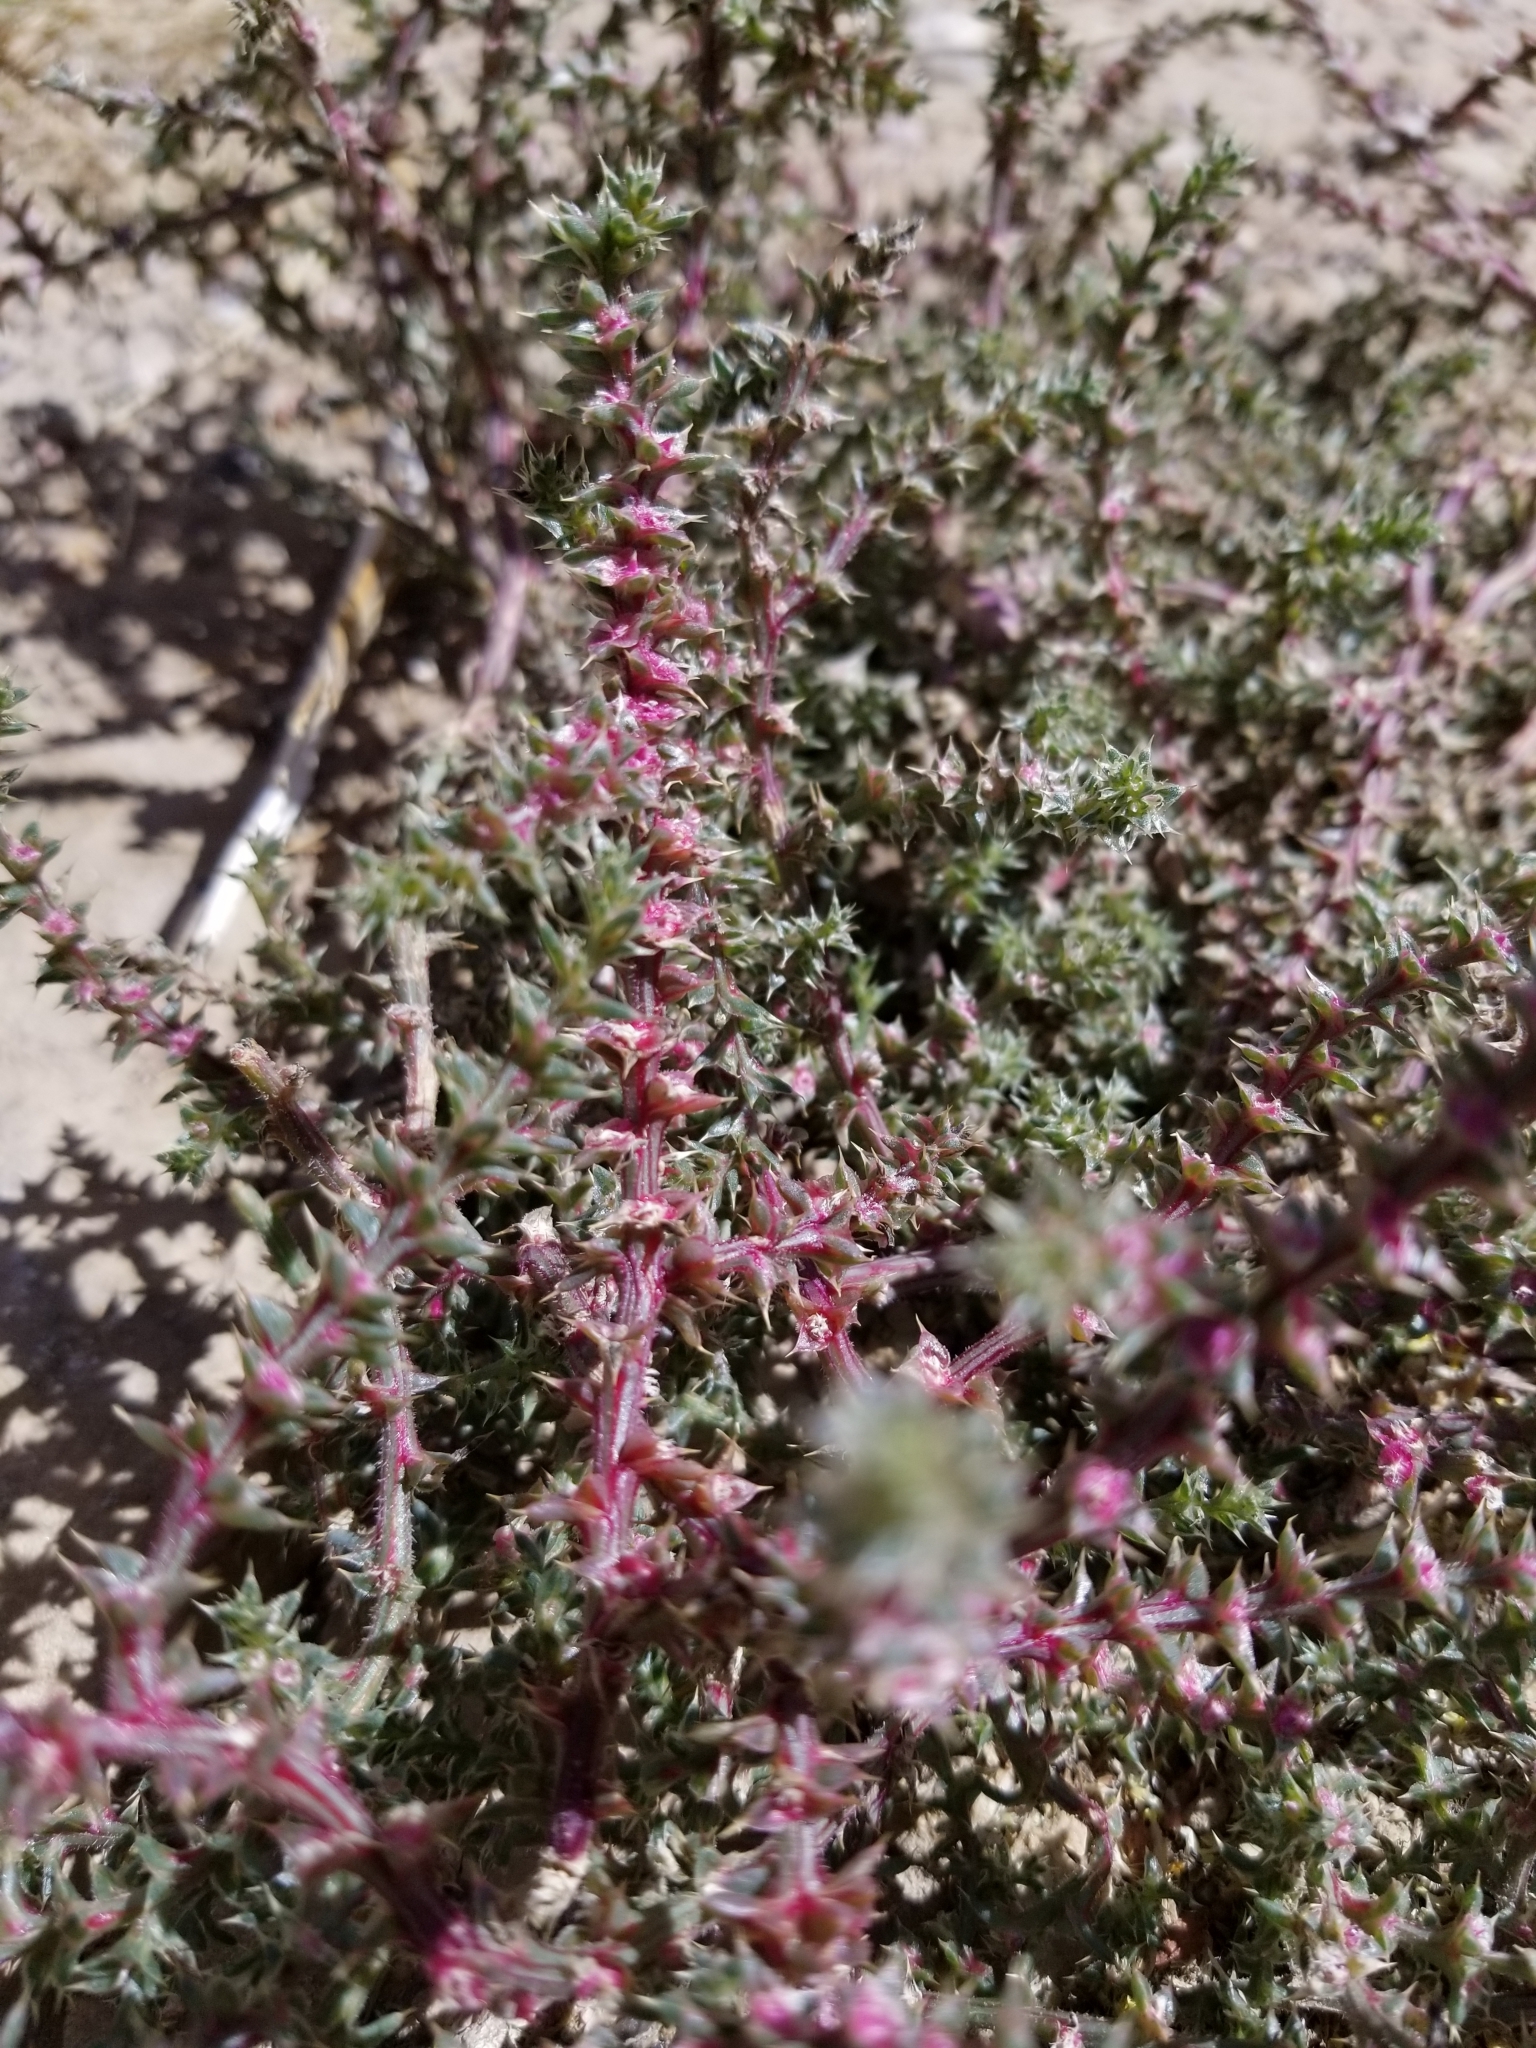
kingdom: Plantae
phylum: Tracheophyta
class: Magnoliopsida
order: Caryophyllales
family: Amaranthaceae
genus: Salsola
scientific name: Salsola tragus
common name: Prickly russian thistle
